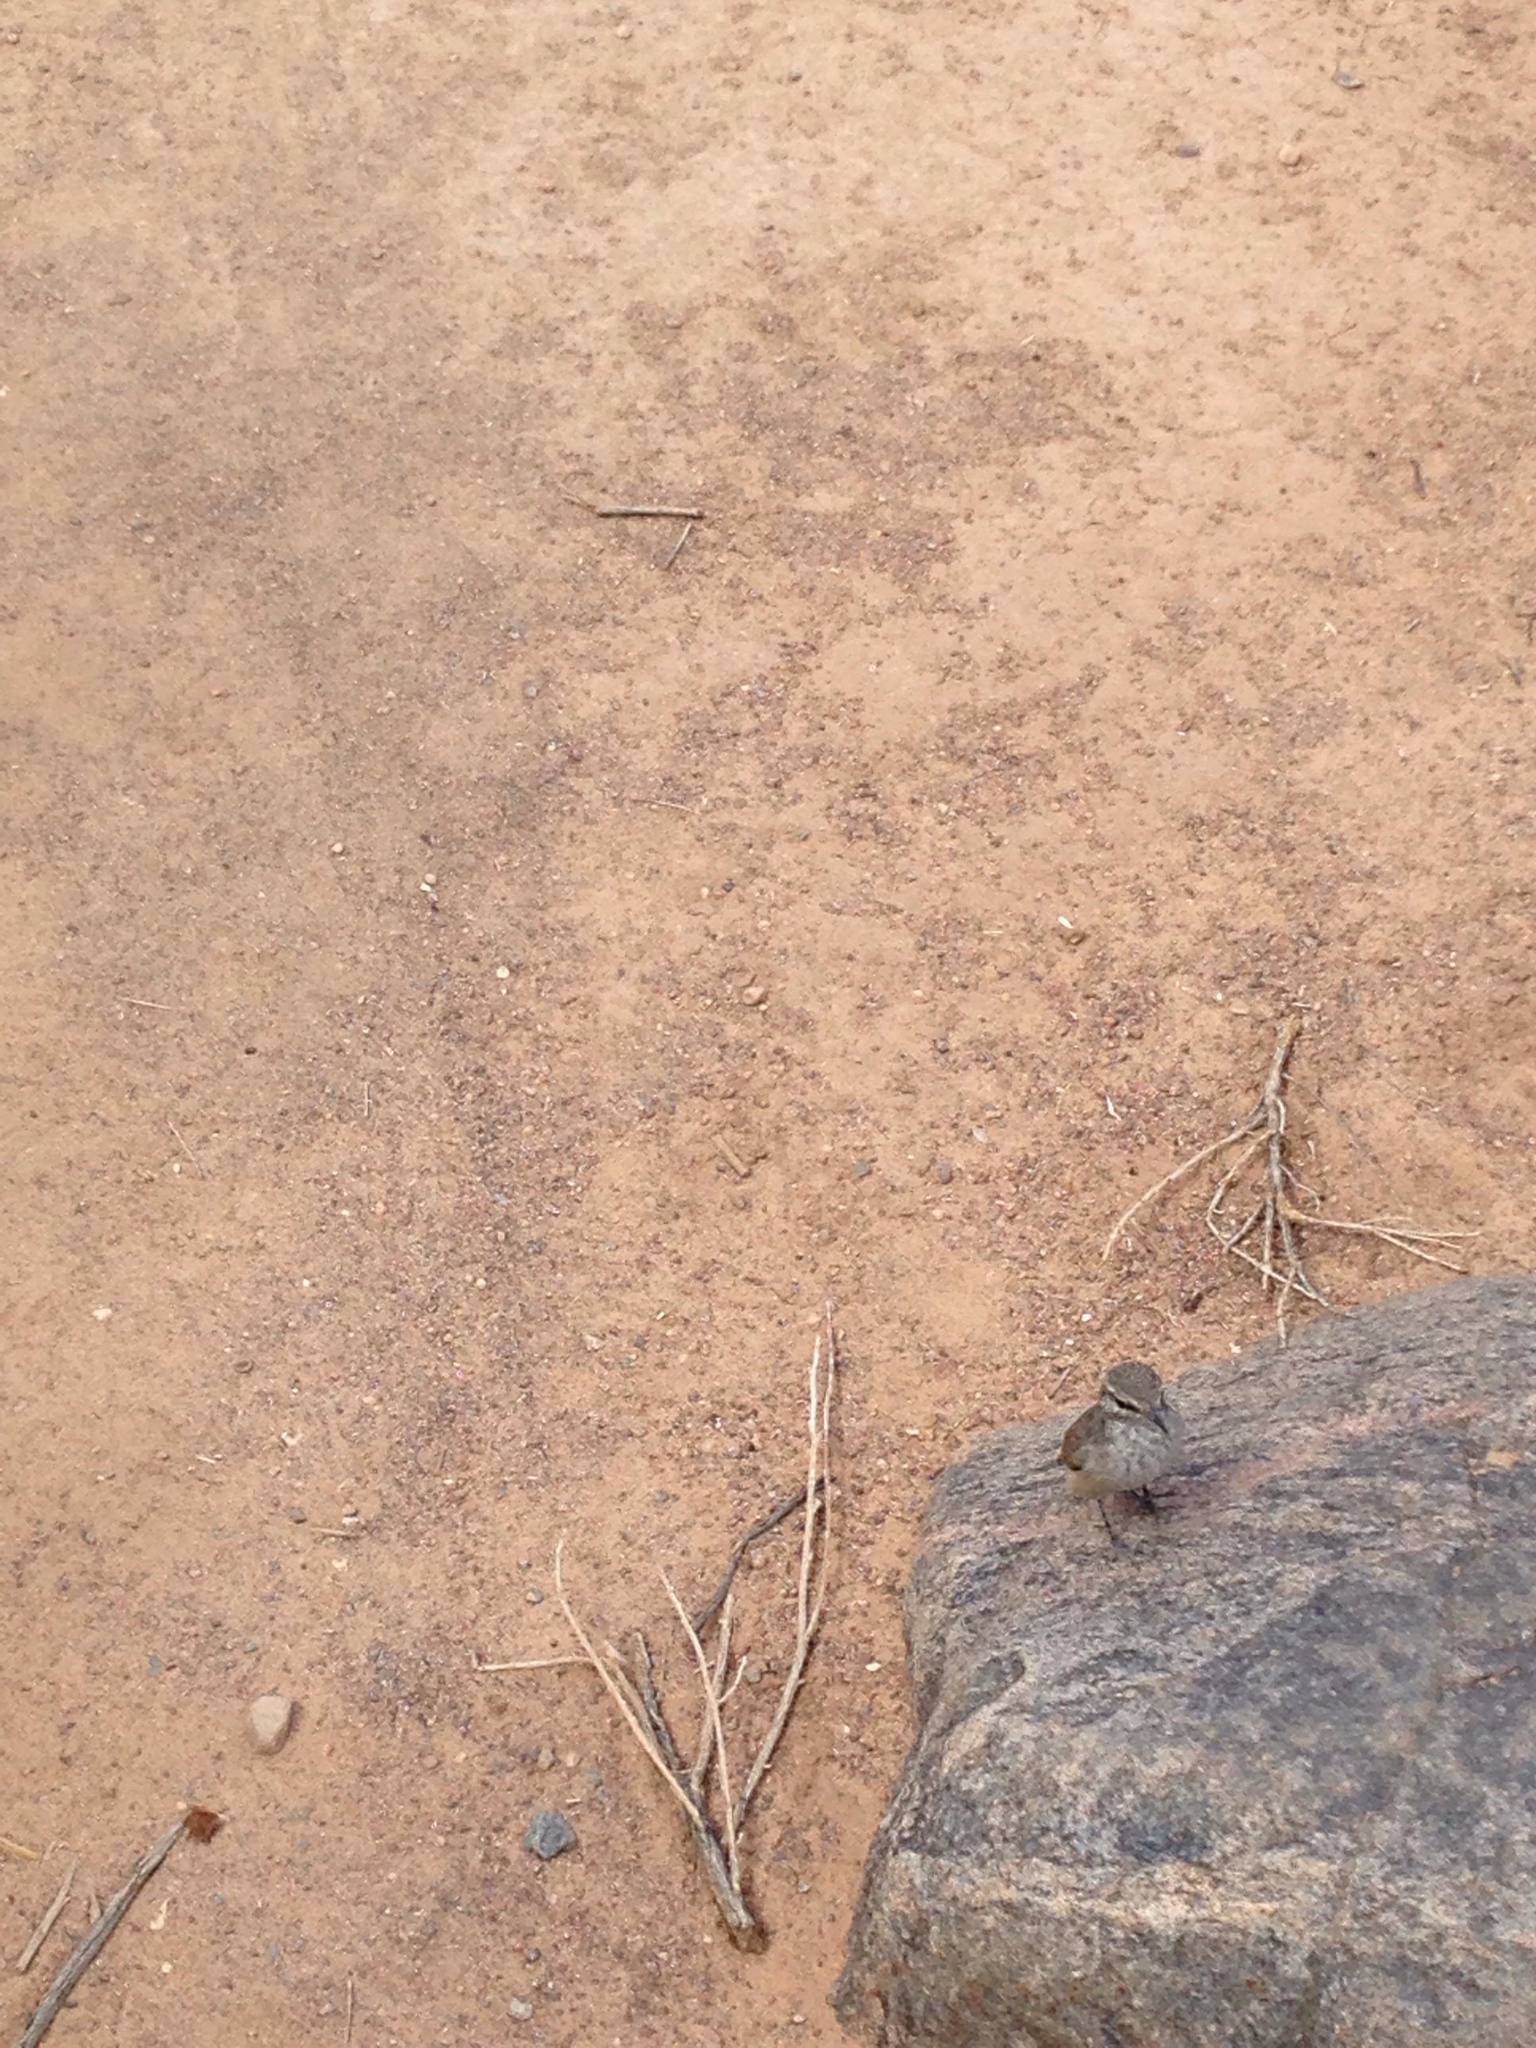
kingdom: Animalia
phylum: Chordata
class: Aves
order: Passeriformes
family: Troglodytidae
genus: Salpinctes
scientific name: Salpinctes obsoletus
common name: Rock wren
